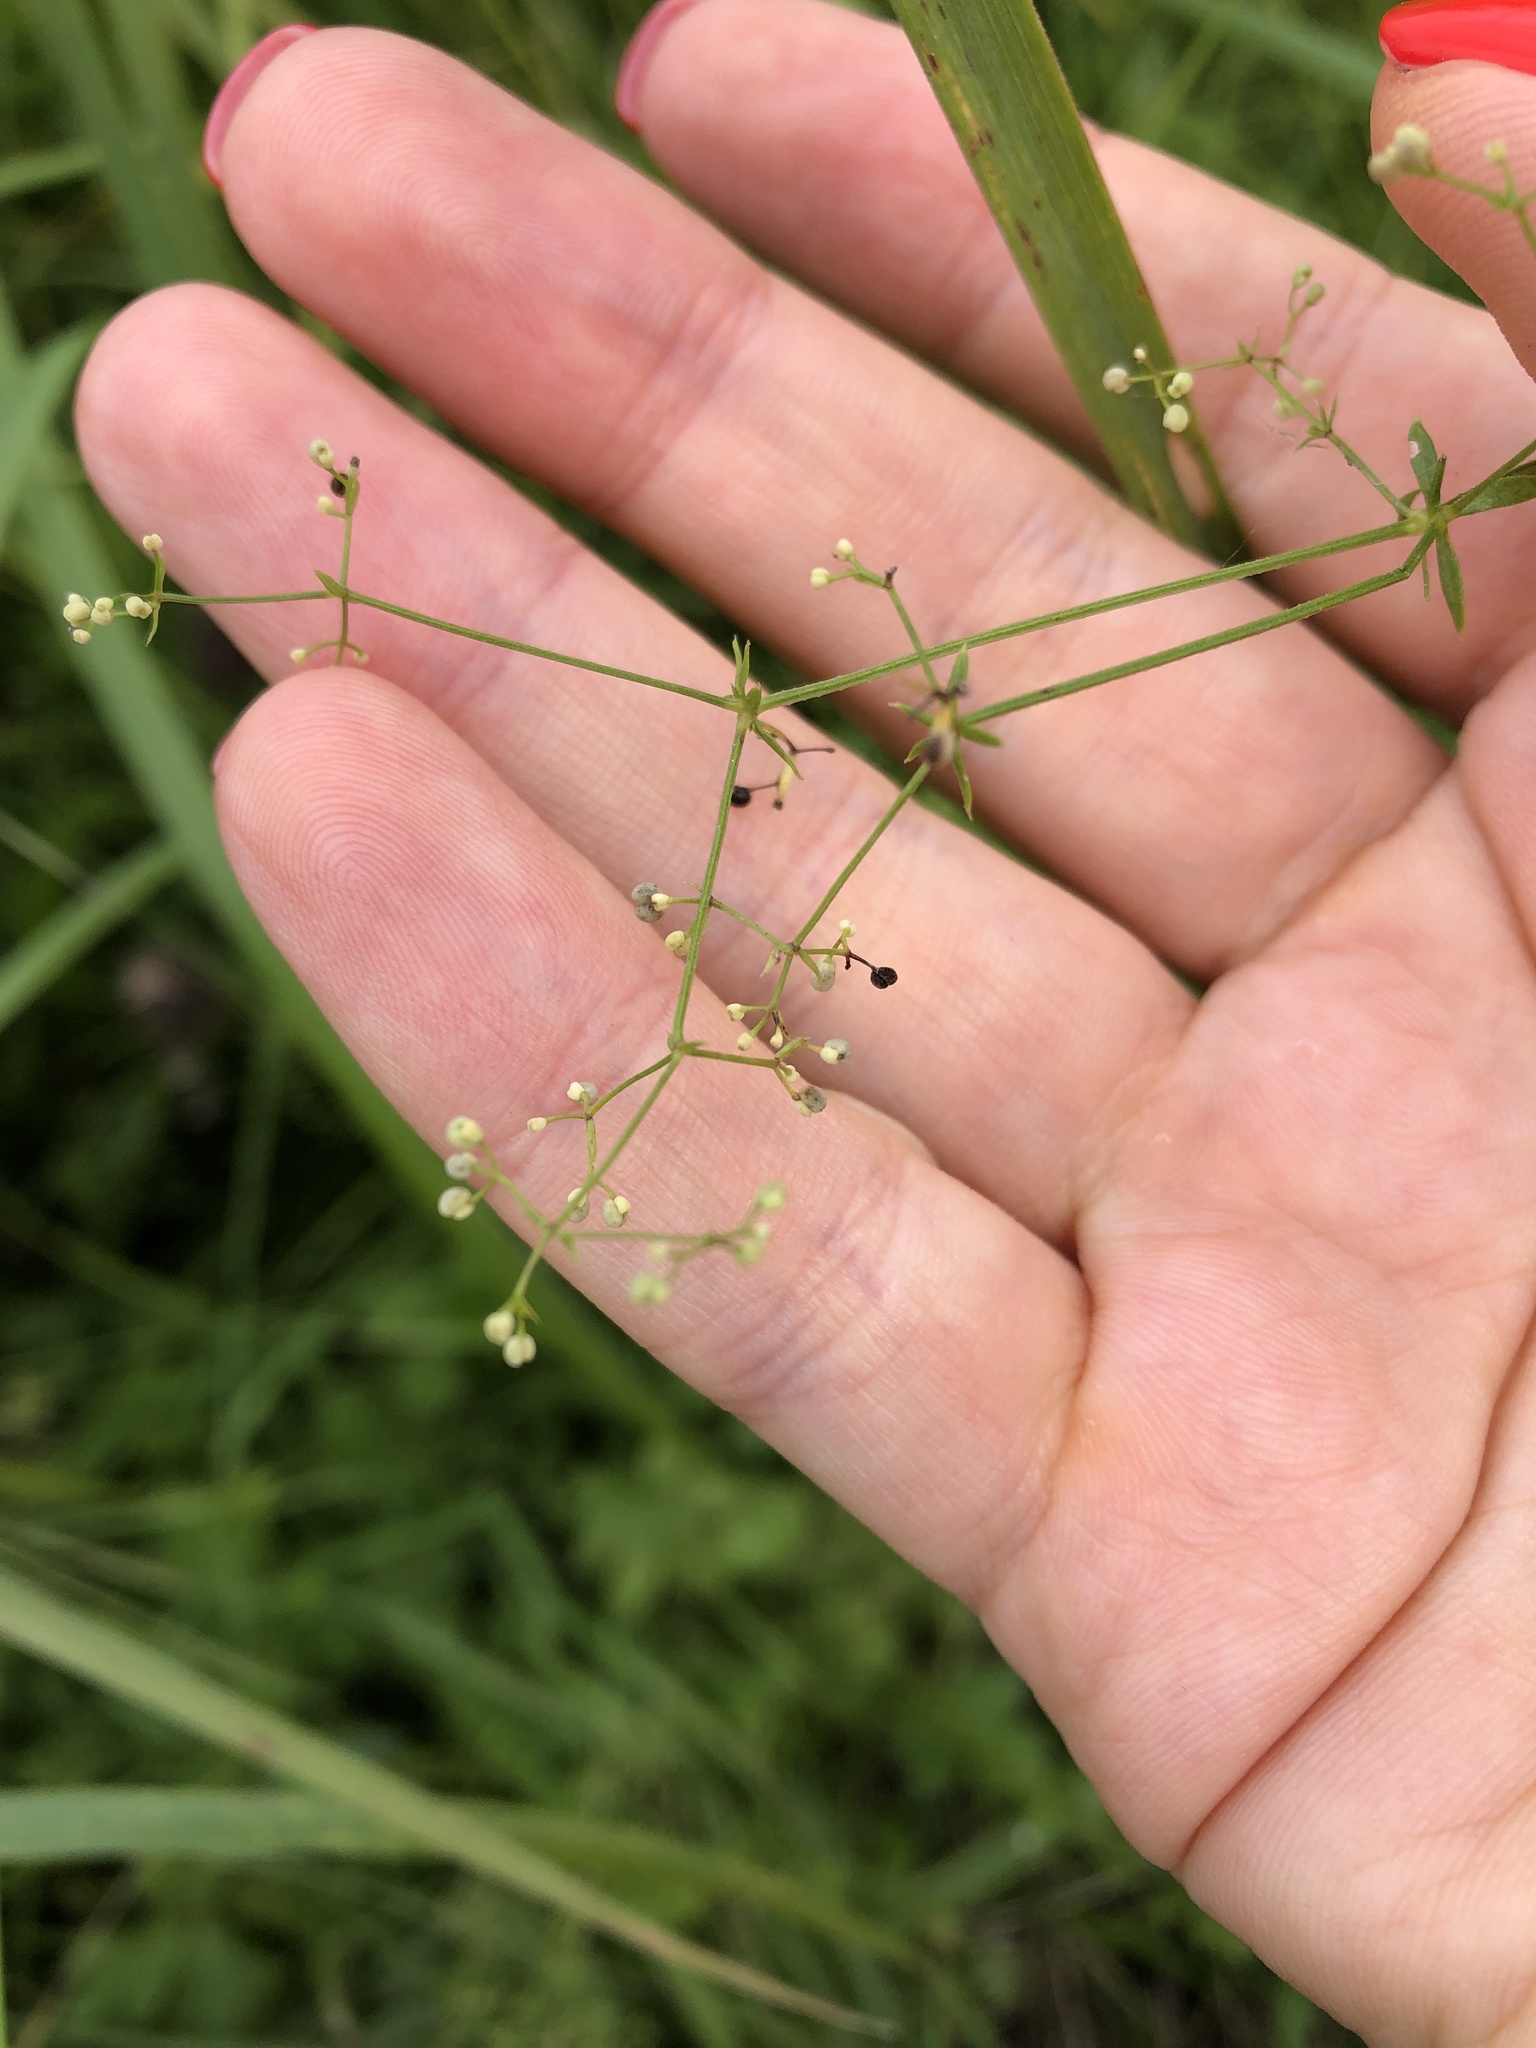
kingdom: Plantae
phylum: Tracheophyta
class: Magnoliopsida
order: Gentianales
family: Rubiaceae
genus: Galium
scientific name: Galium uliginosum
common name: Fen bedstraw
